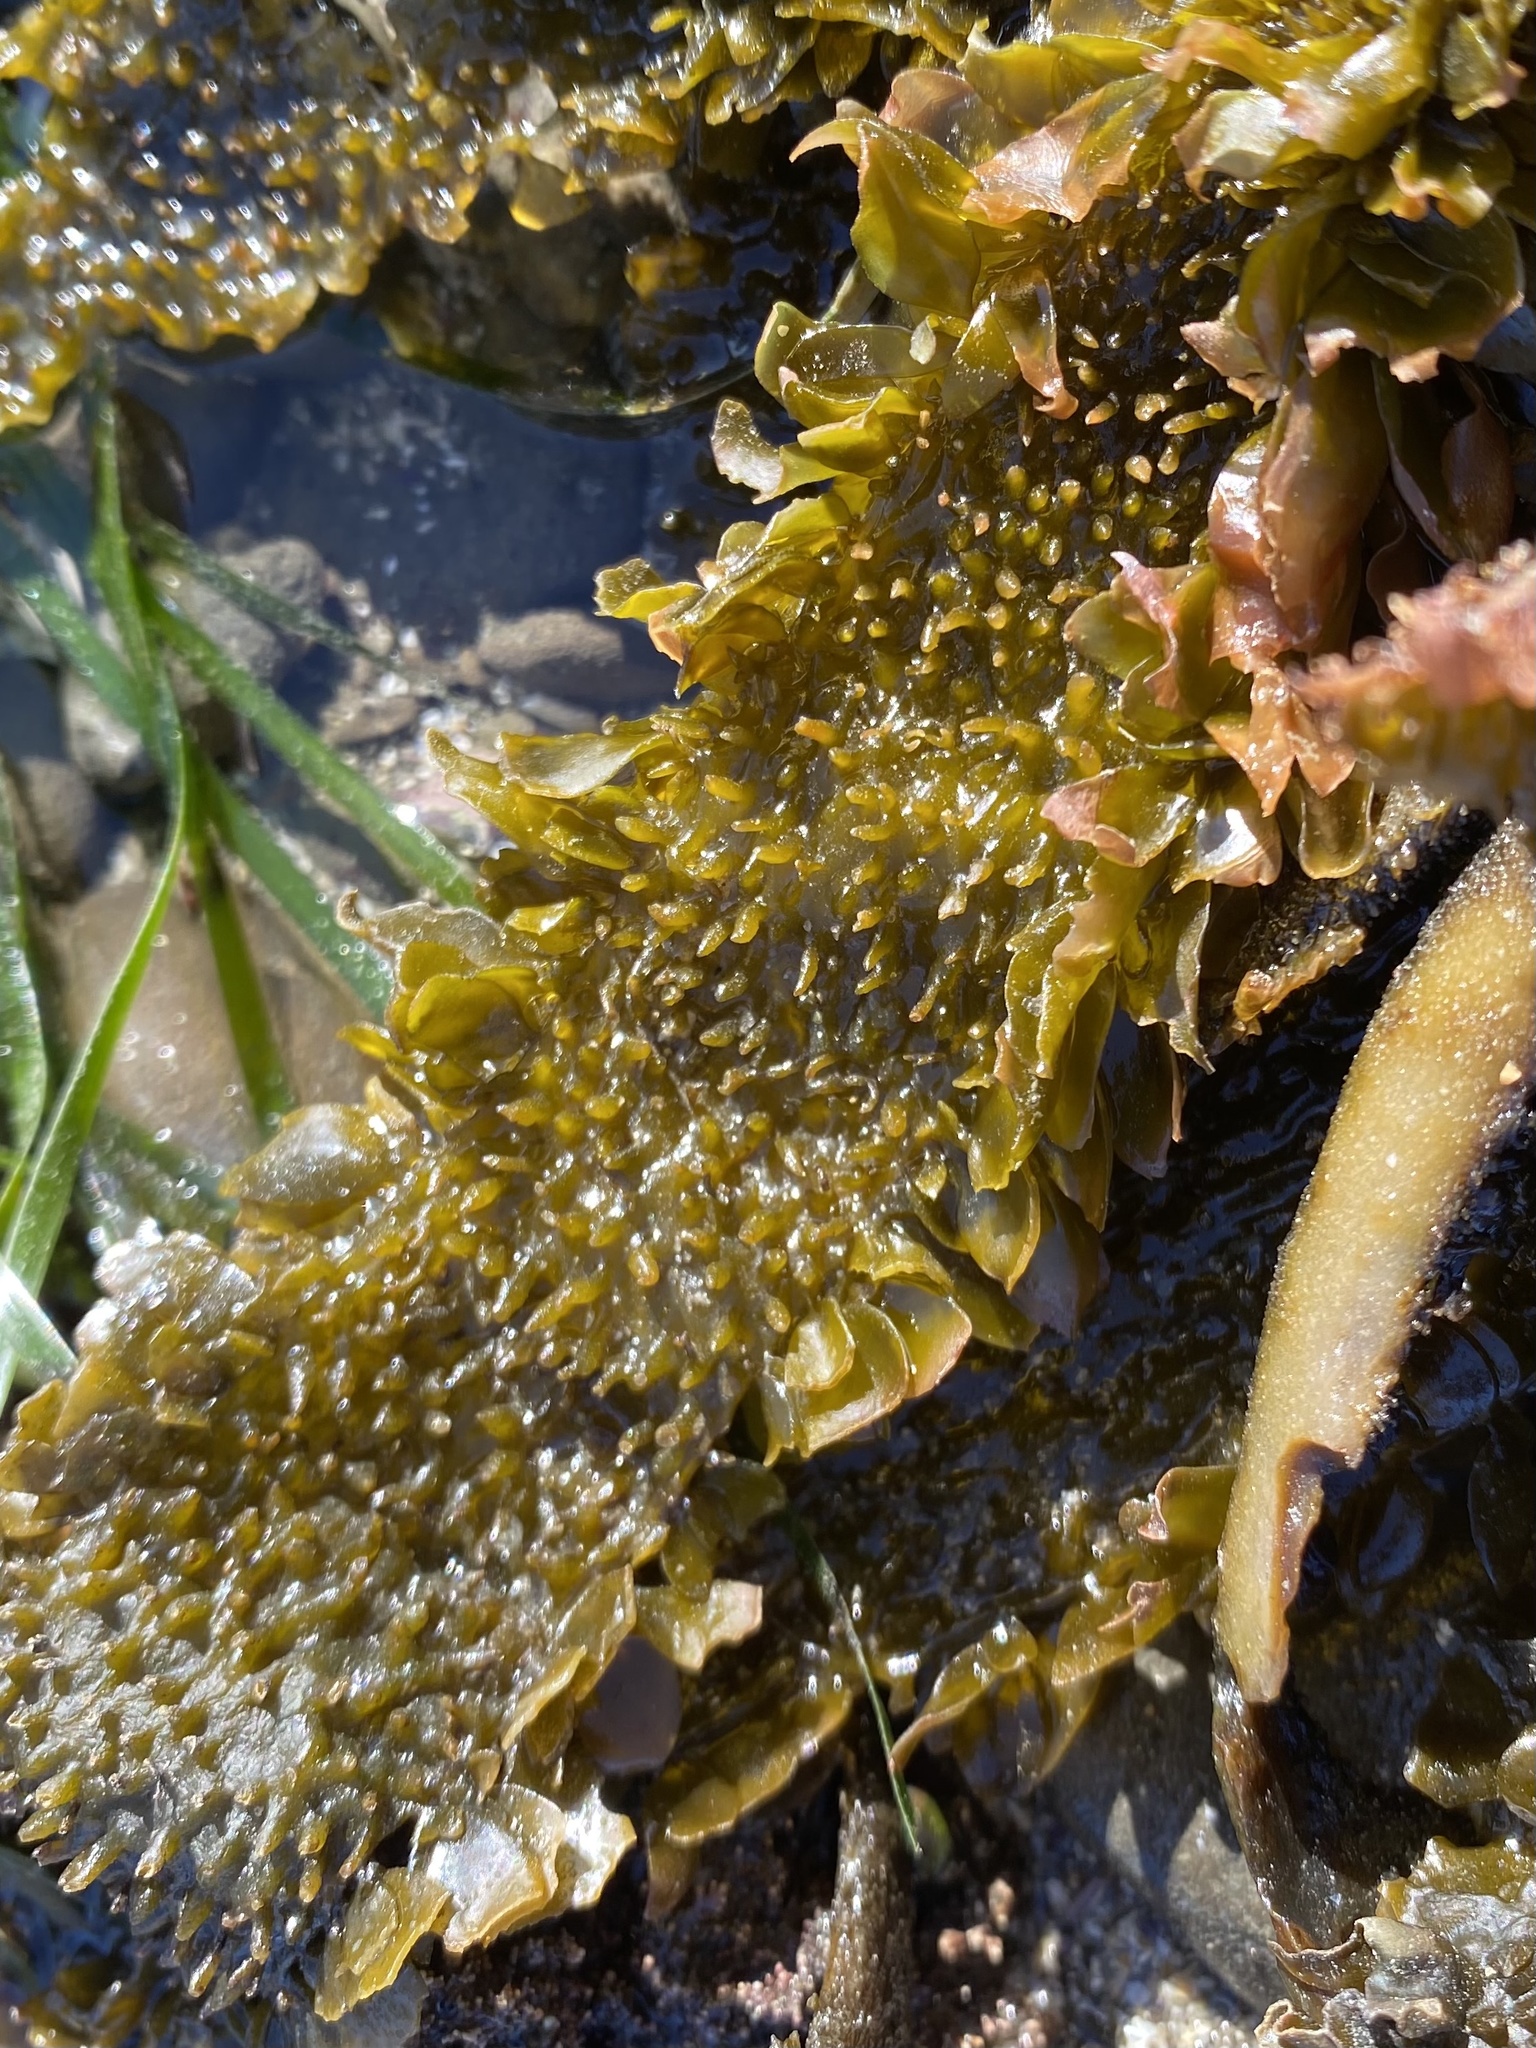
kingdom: Chromista
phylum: Ochrophyta
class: Phaeophyceae
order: Laminariales
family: Lessoniaceae
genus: Egregia
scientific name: Egregia menziesii
